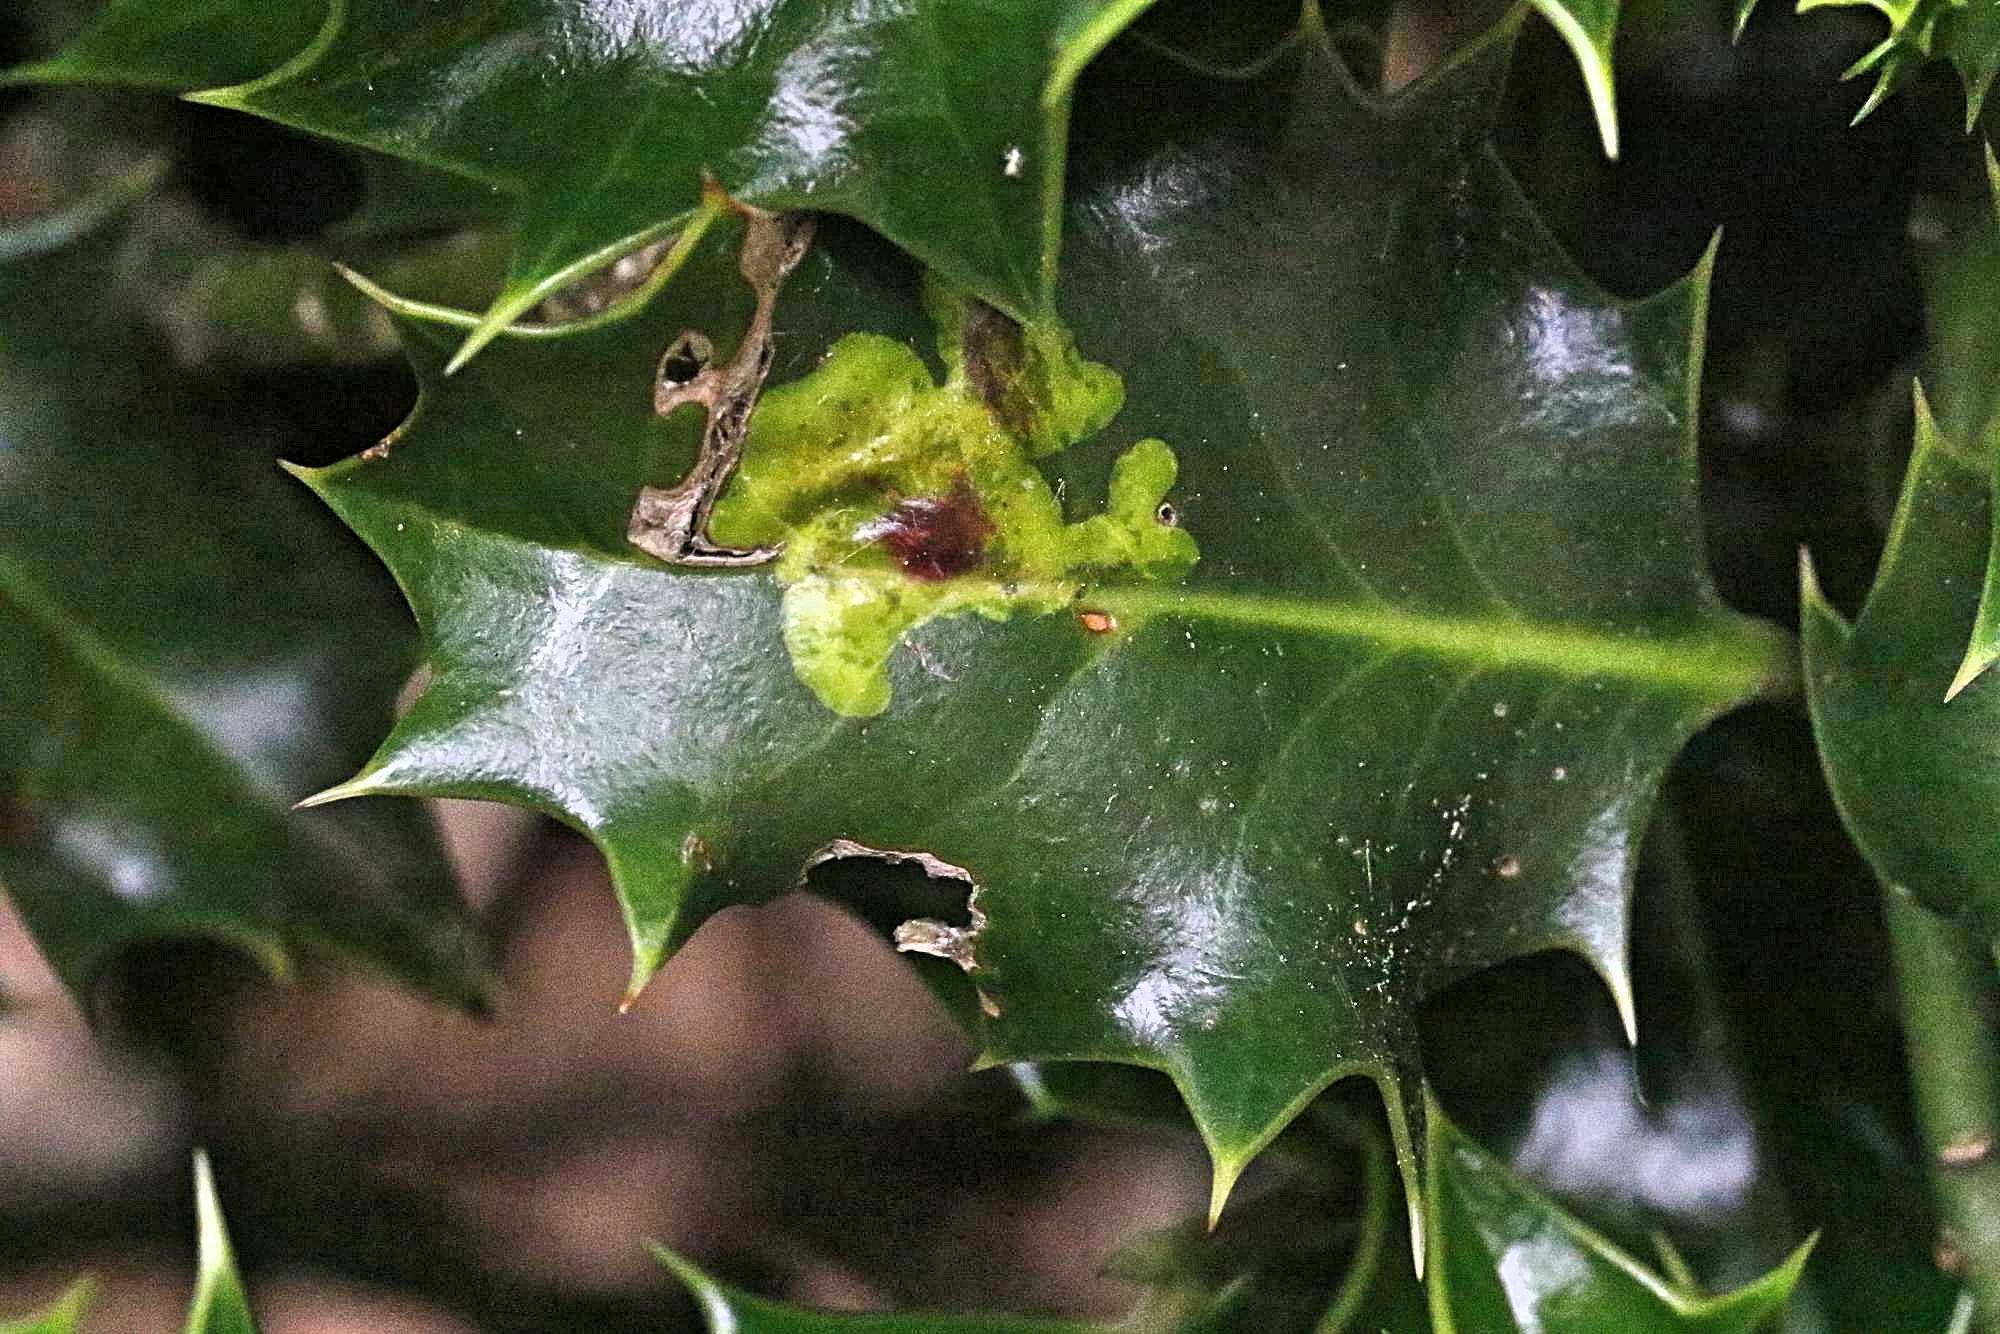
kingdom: Animalia
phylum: Arthropoda
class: Insecta
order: Diptera
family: Agromyzidae
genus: Phytomyza
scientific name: Phytomyza ilicis
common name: Holly leafminer
